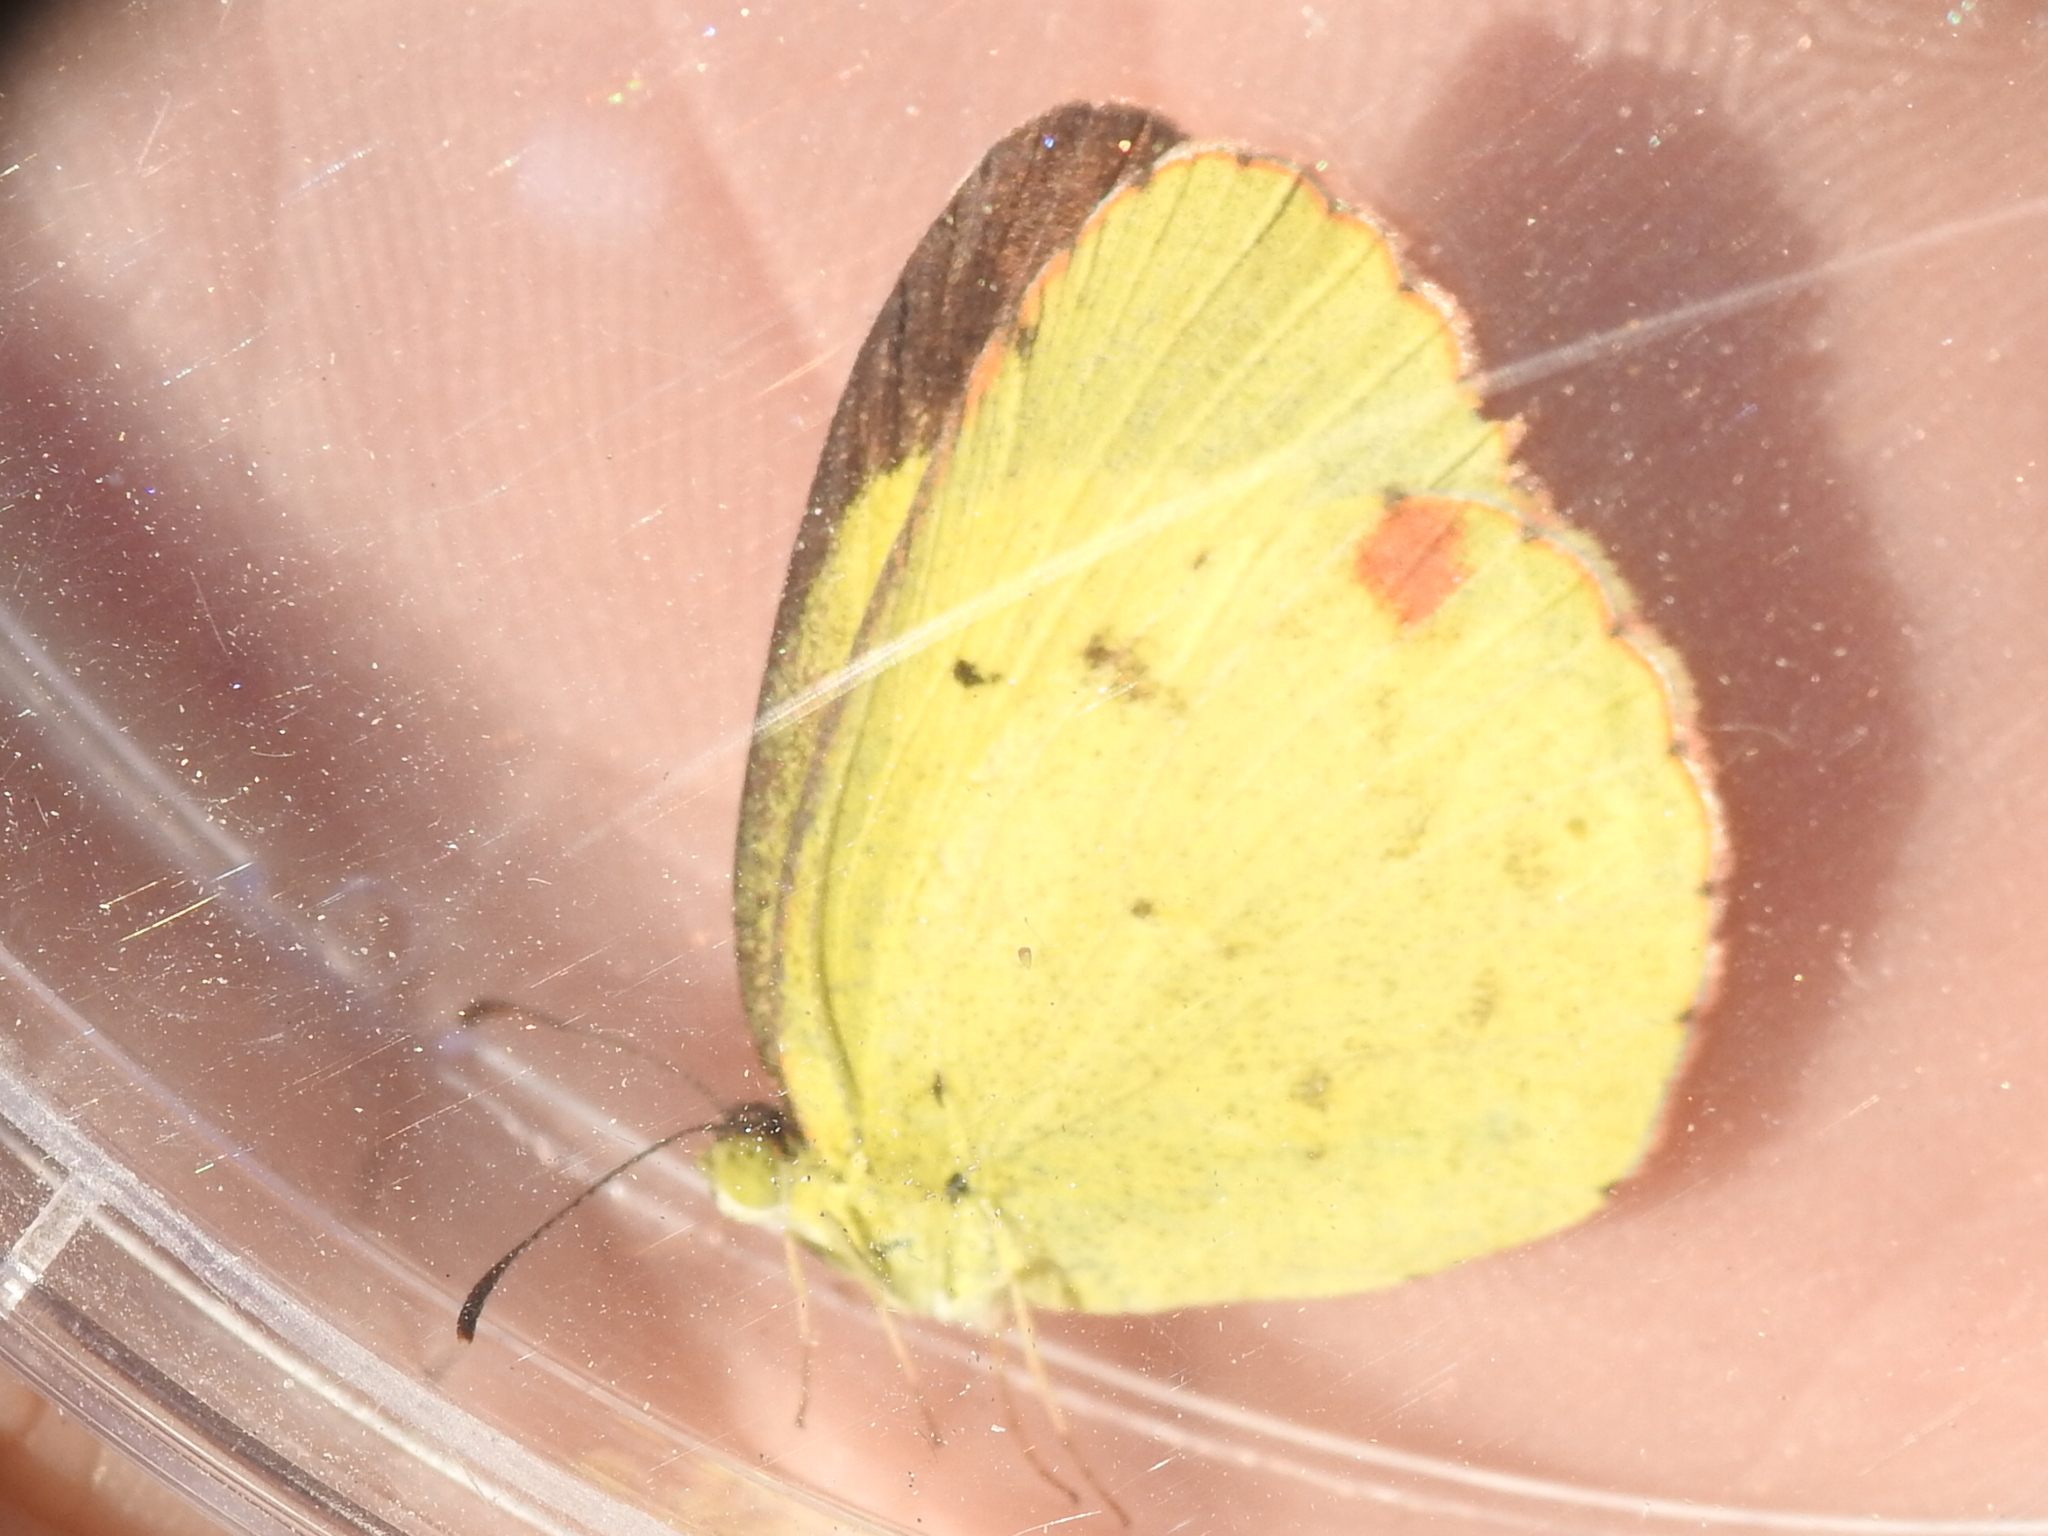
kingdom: Animalia
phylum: Arthropoda
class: Insecta
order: Lepidoptera
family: Pieridae
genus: Pyrisitia
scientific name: Pyrisitia lisa
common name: Little yellow
